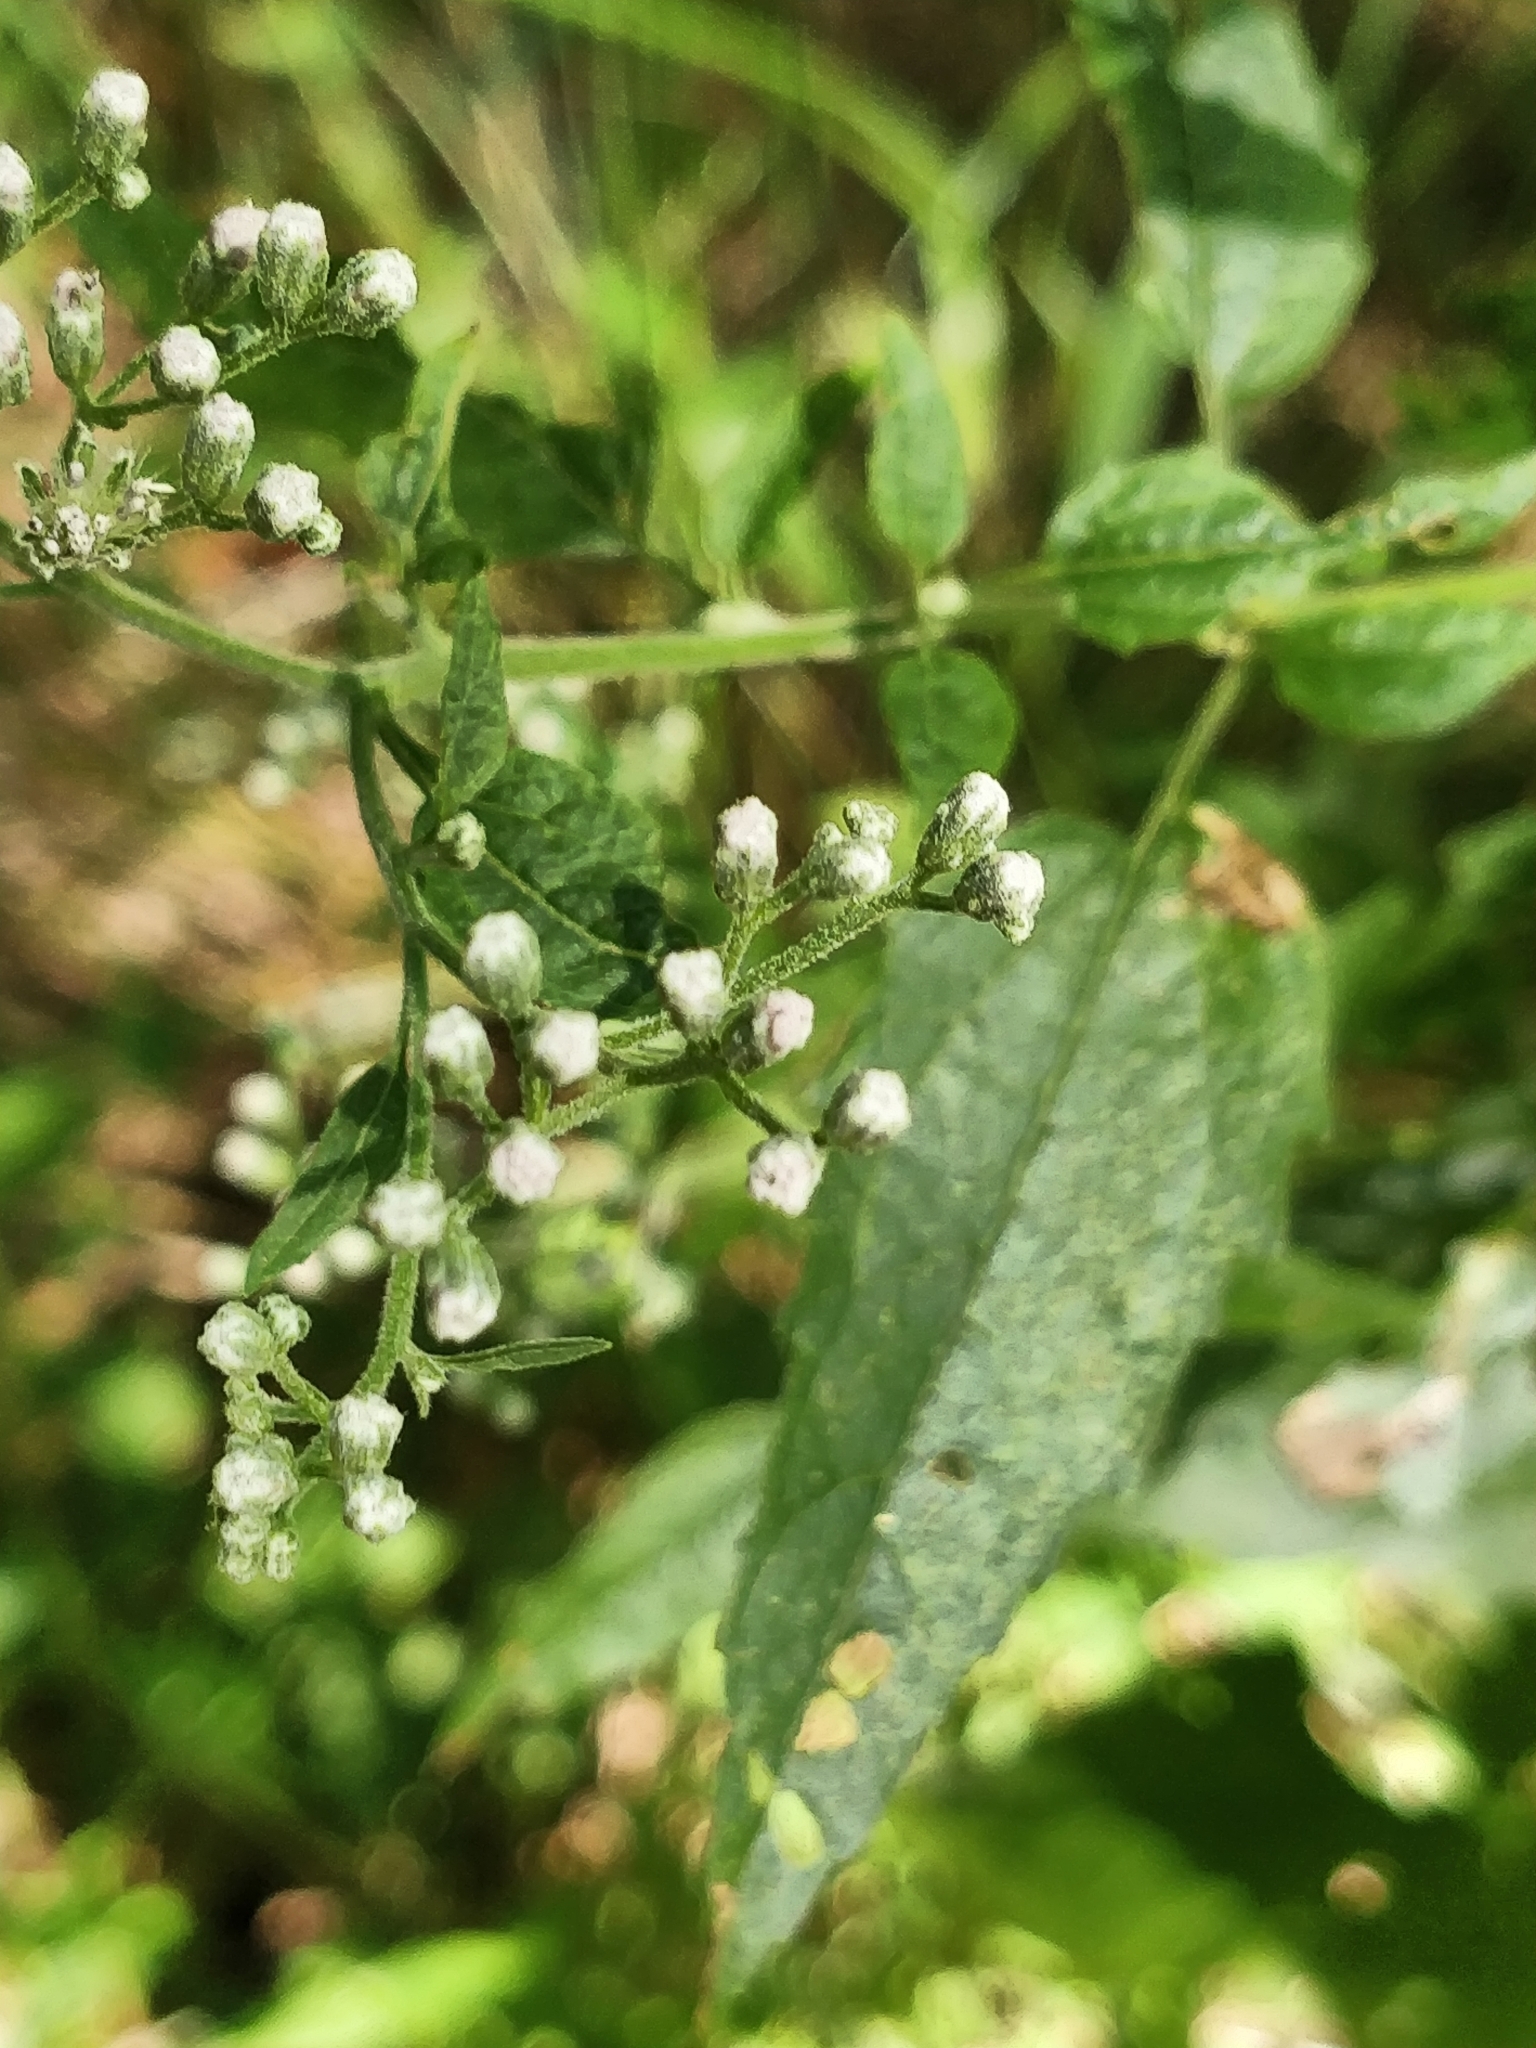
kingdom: Plantae
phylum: Tracheophyta
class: Magnoliopsida
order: Asterales
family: Asteraceae
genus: Eupatorium
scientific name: Eupatorium serotinum
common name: Late boneset
